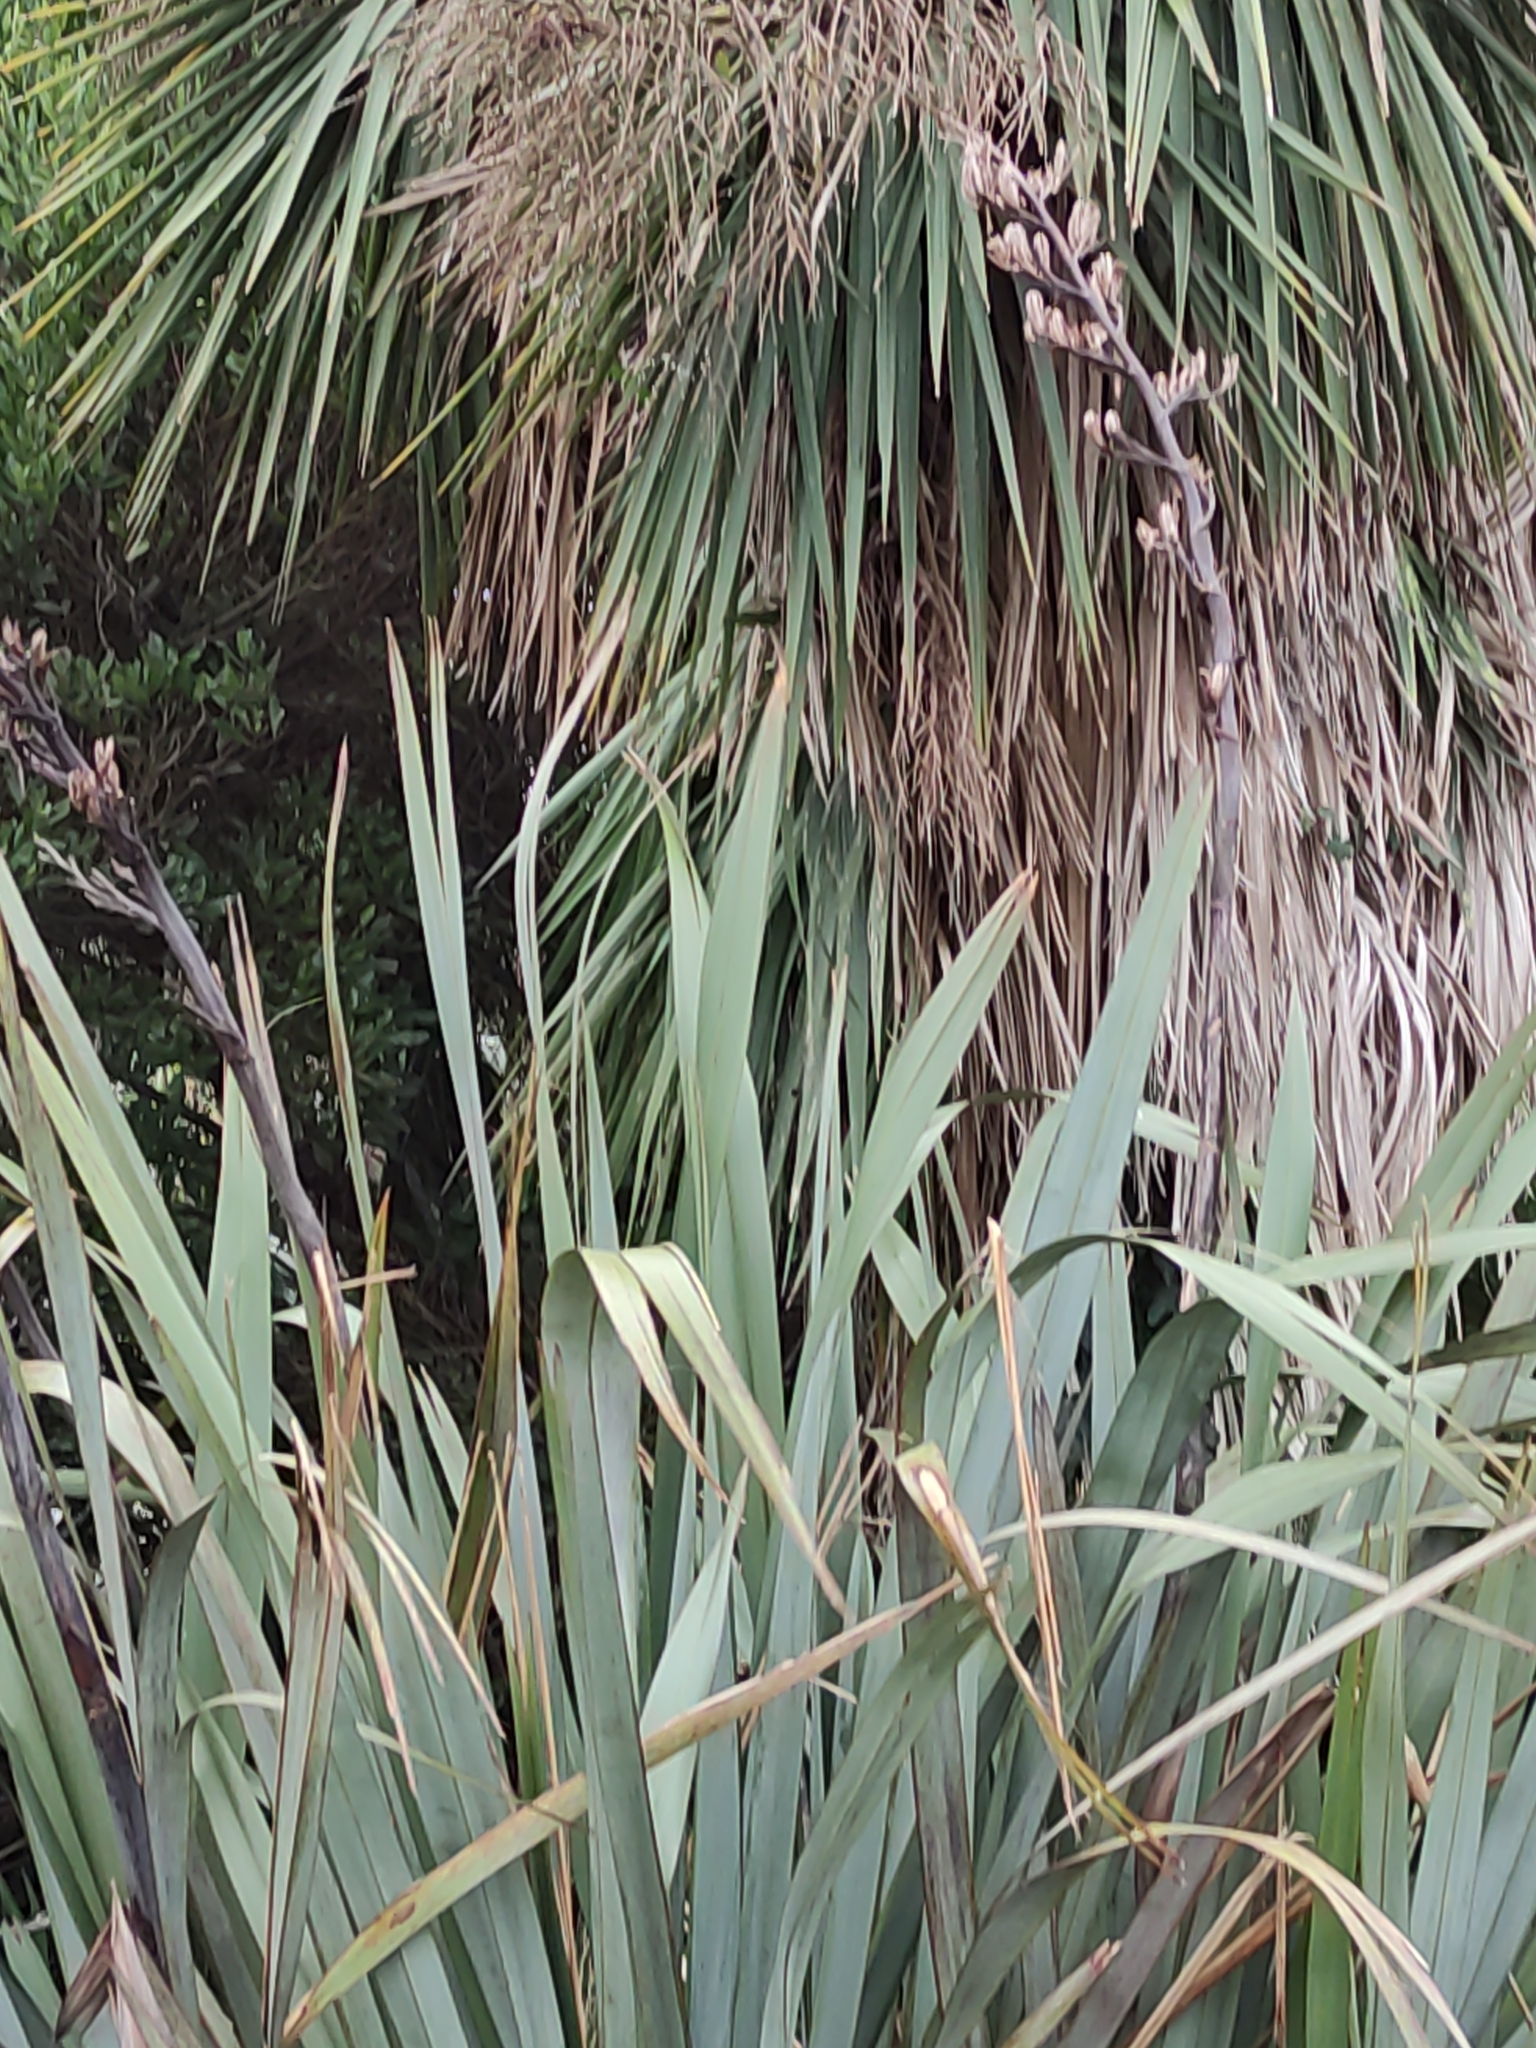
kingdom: Plantae
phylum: Tracheophyta
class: Liliopsida
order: Asparagales
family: Asphodelaceae
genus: Phormium
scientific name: Phormium tenax
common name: New zealand flax
